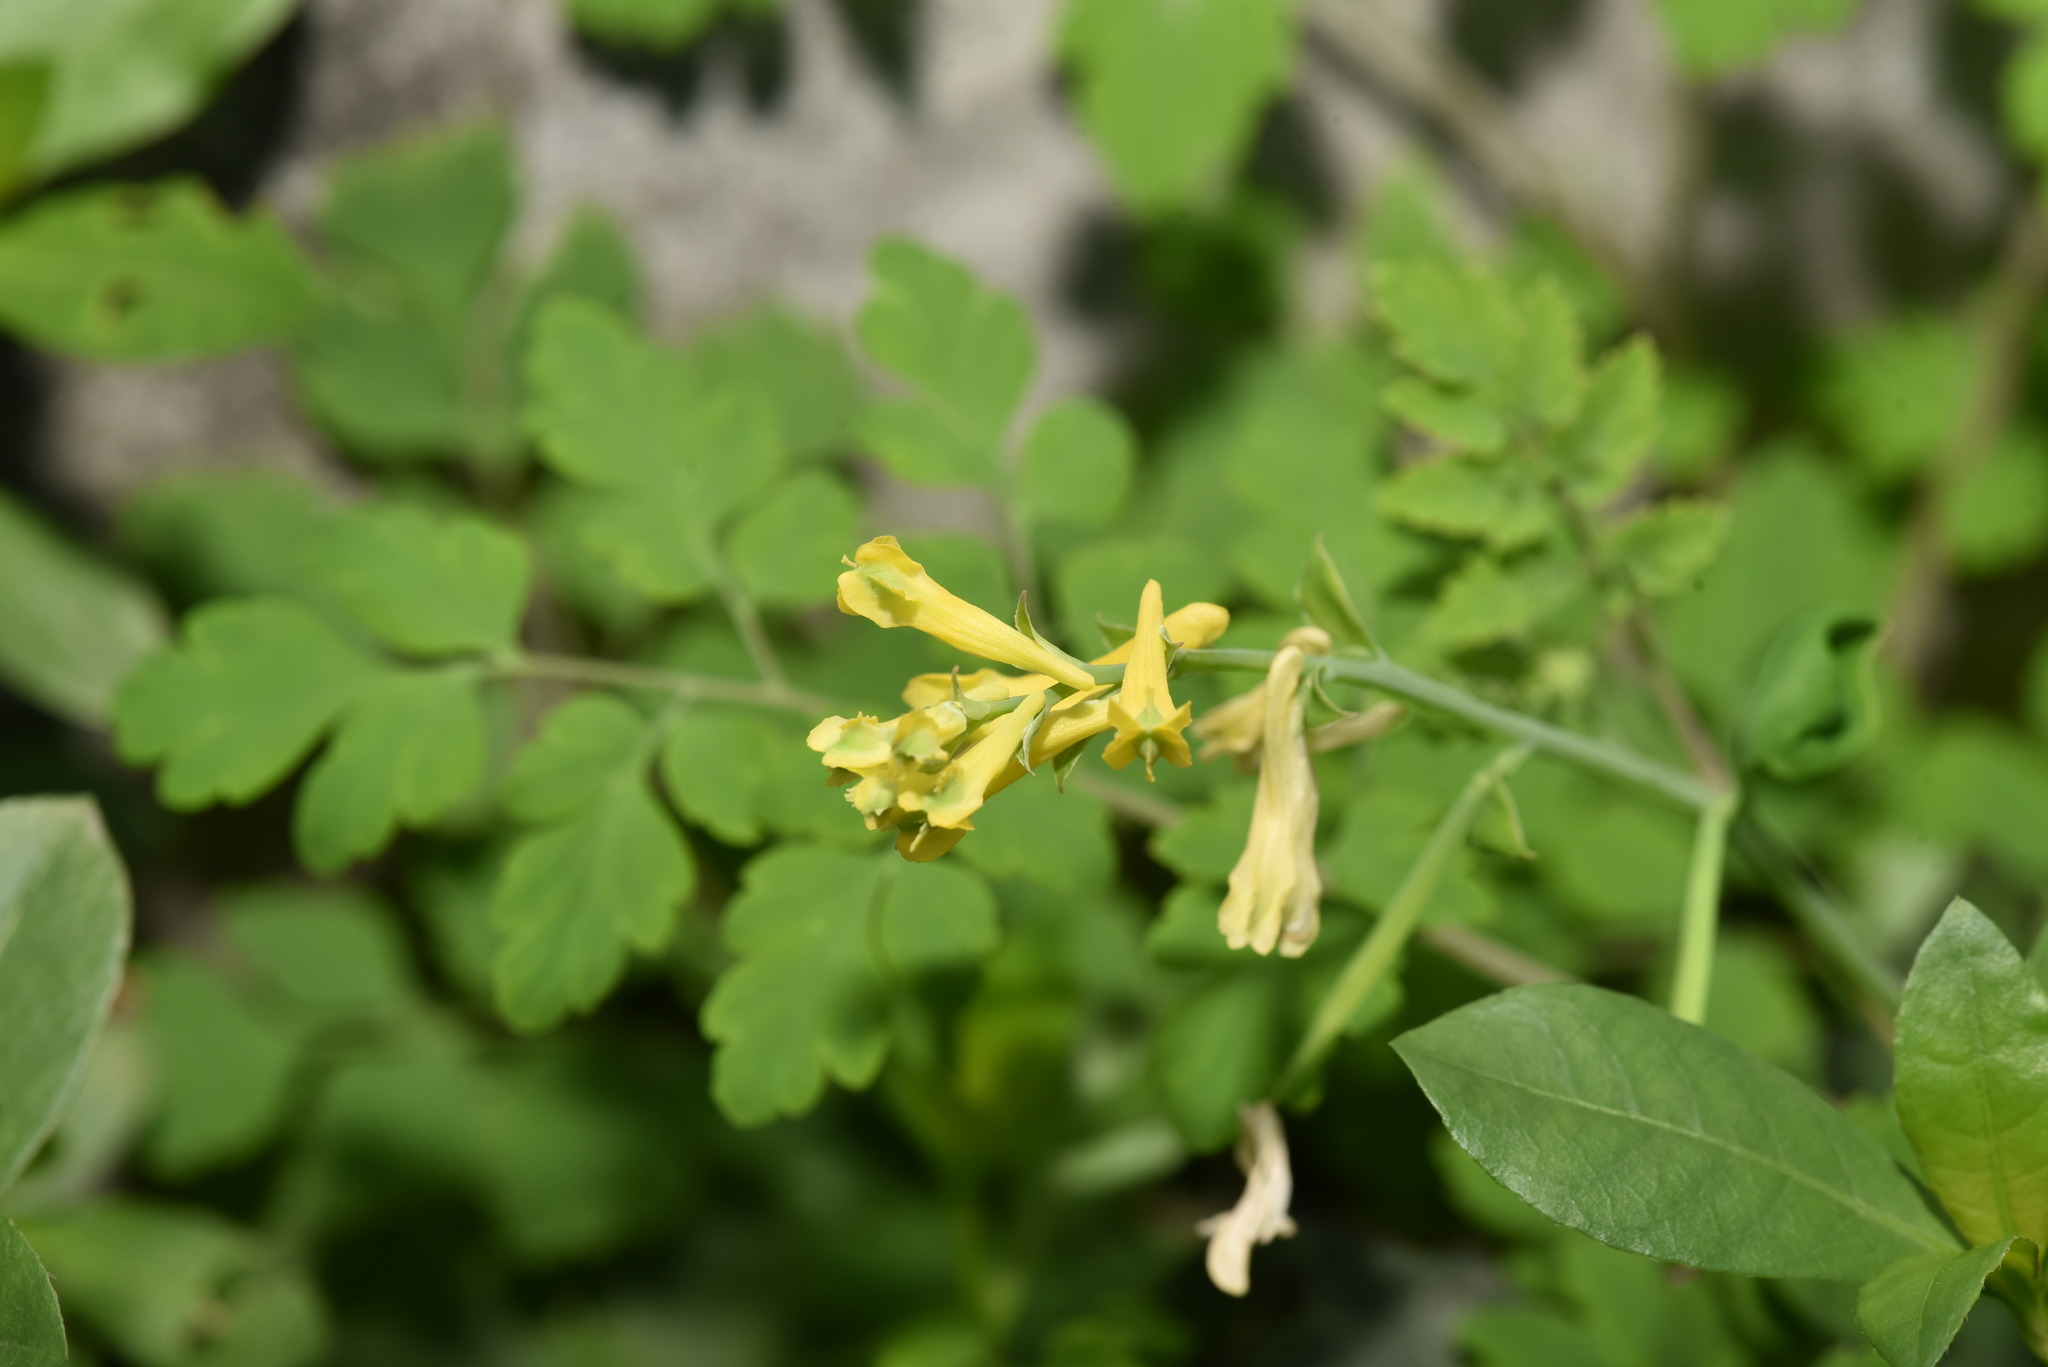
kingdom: Plantae
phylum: Tracheophyta
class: Magnoliopsida
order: Ranunculales
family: Papaveraceae
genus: Corydalis
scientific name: Corydalis balansae
